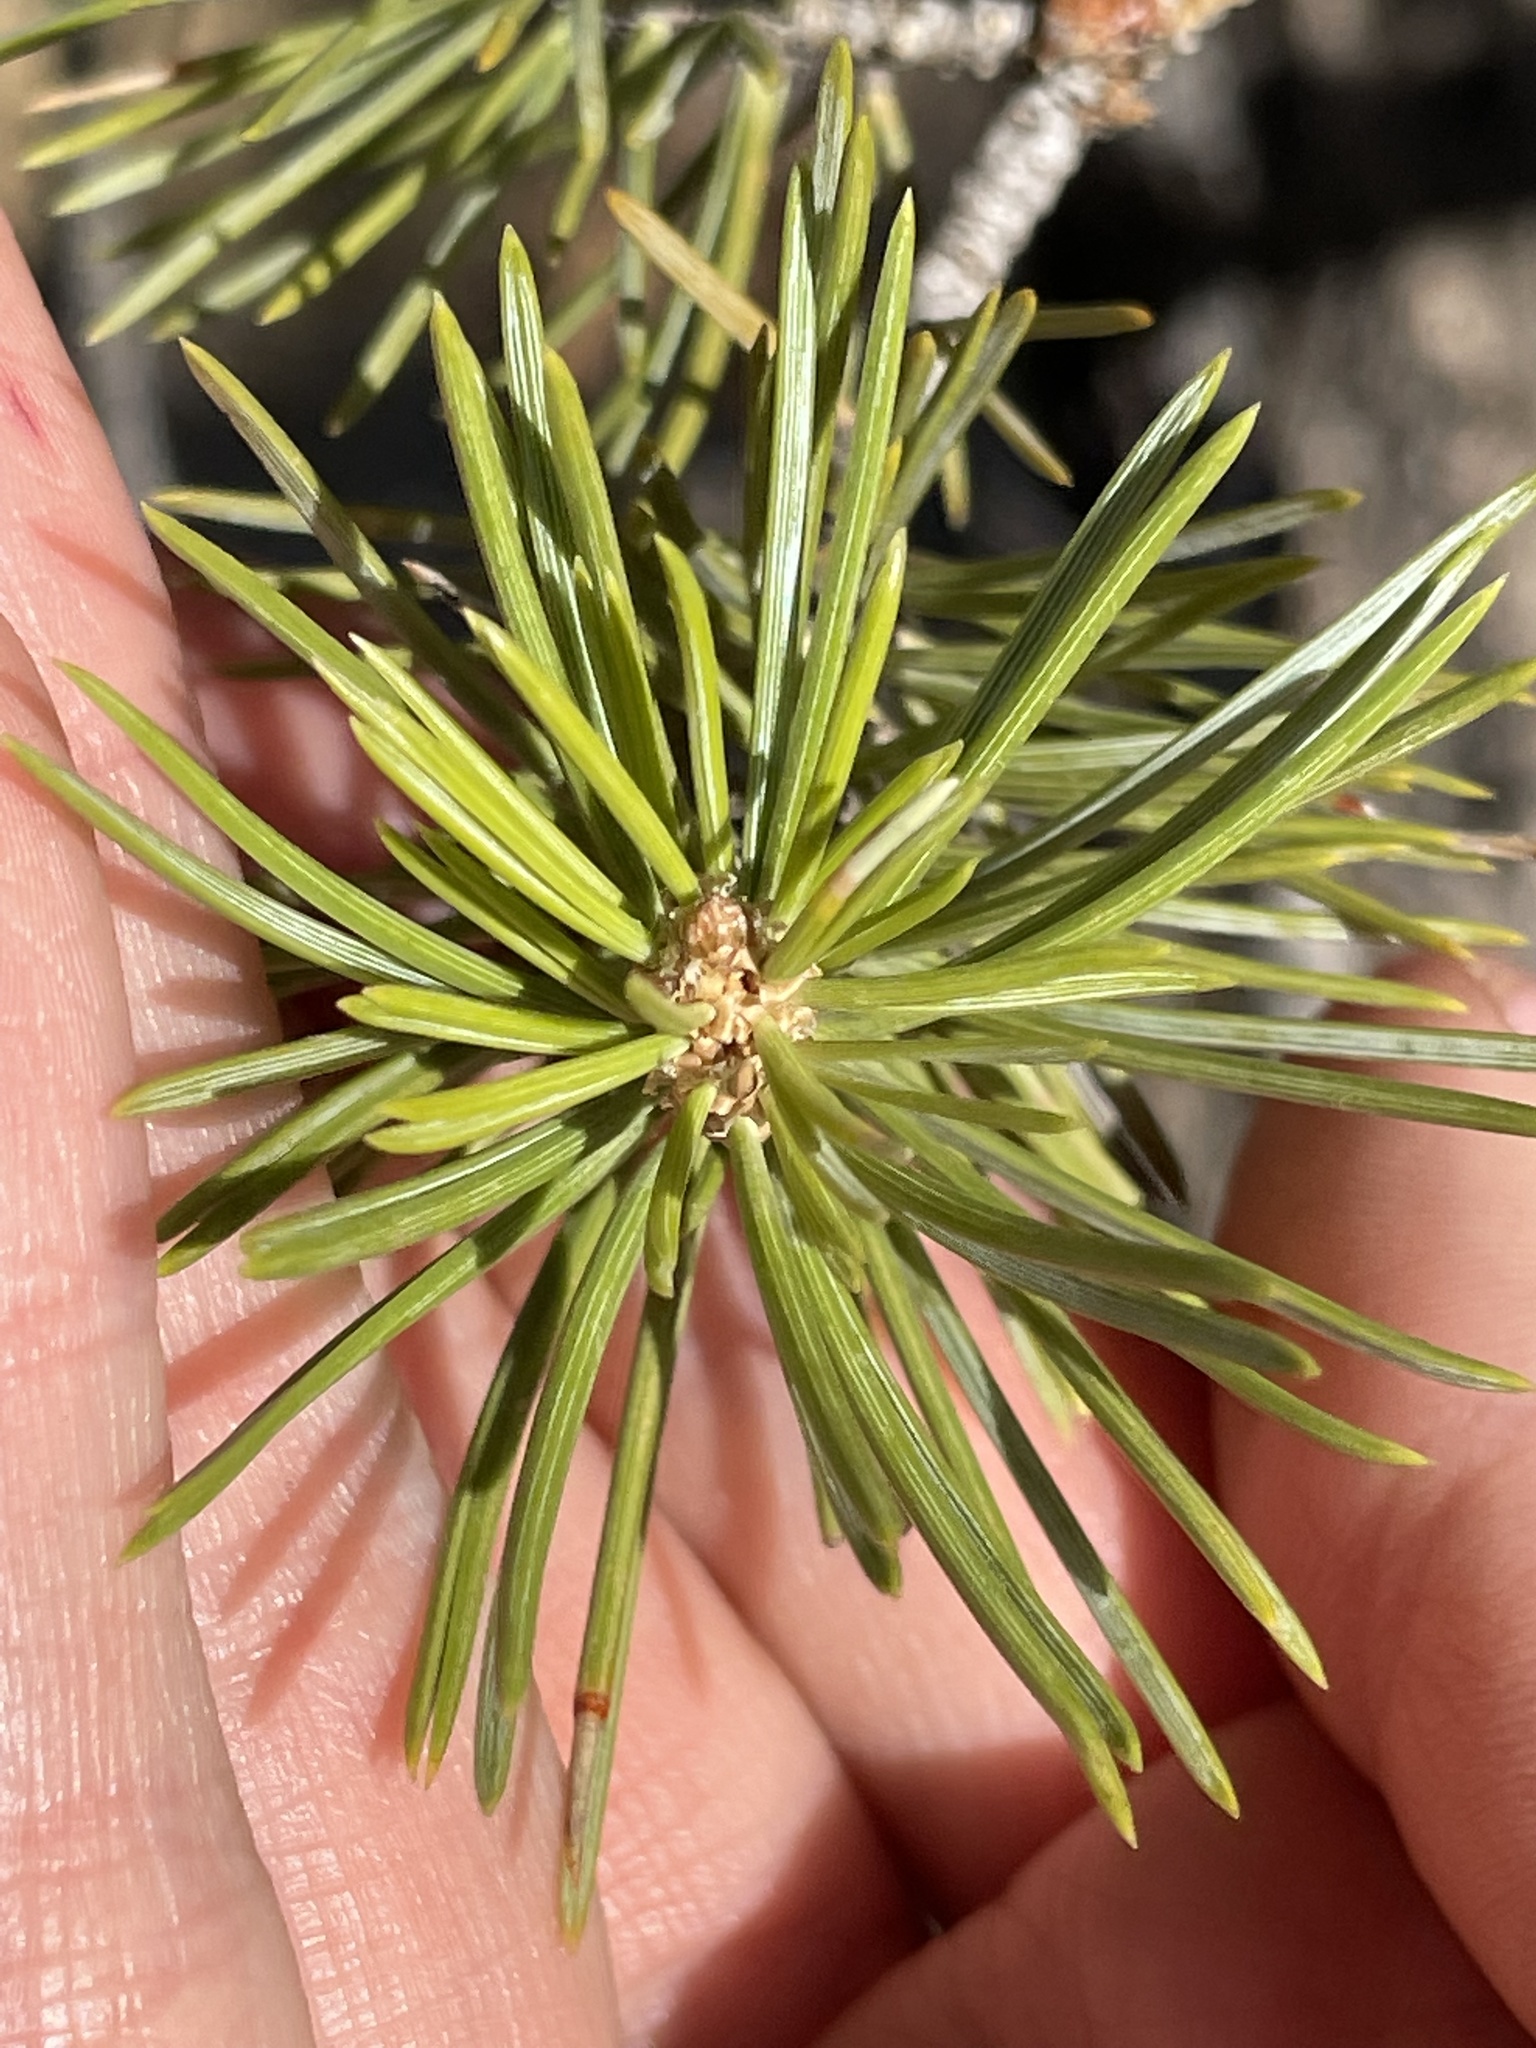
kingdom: Plantae
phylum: Tracheophyta
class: Pinopsida
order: Pinales
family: Pinaceae
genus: Pinus
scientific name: Pinus edulis
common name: Colorado pinyon
